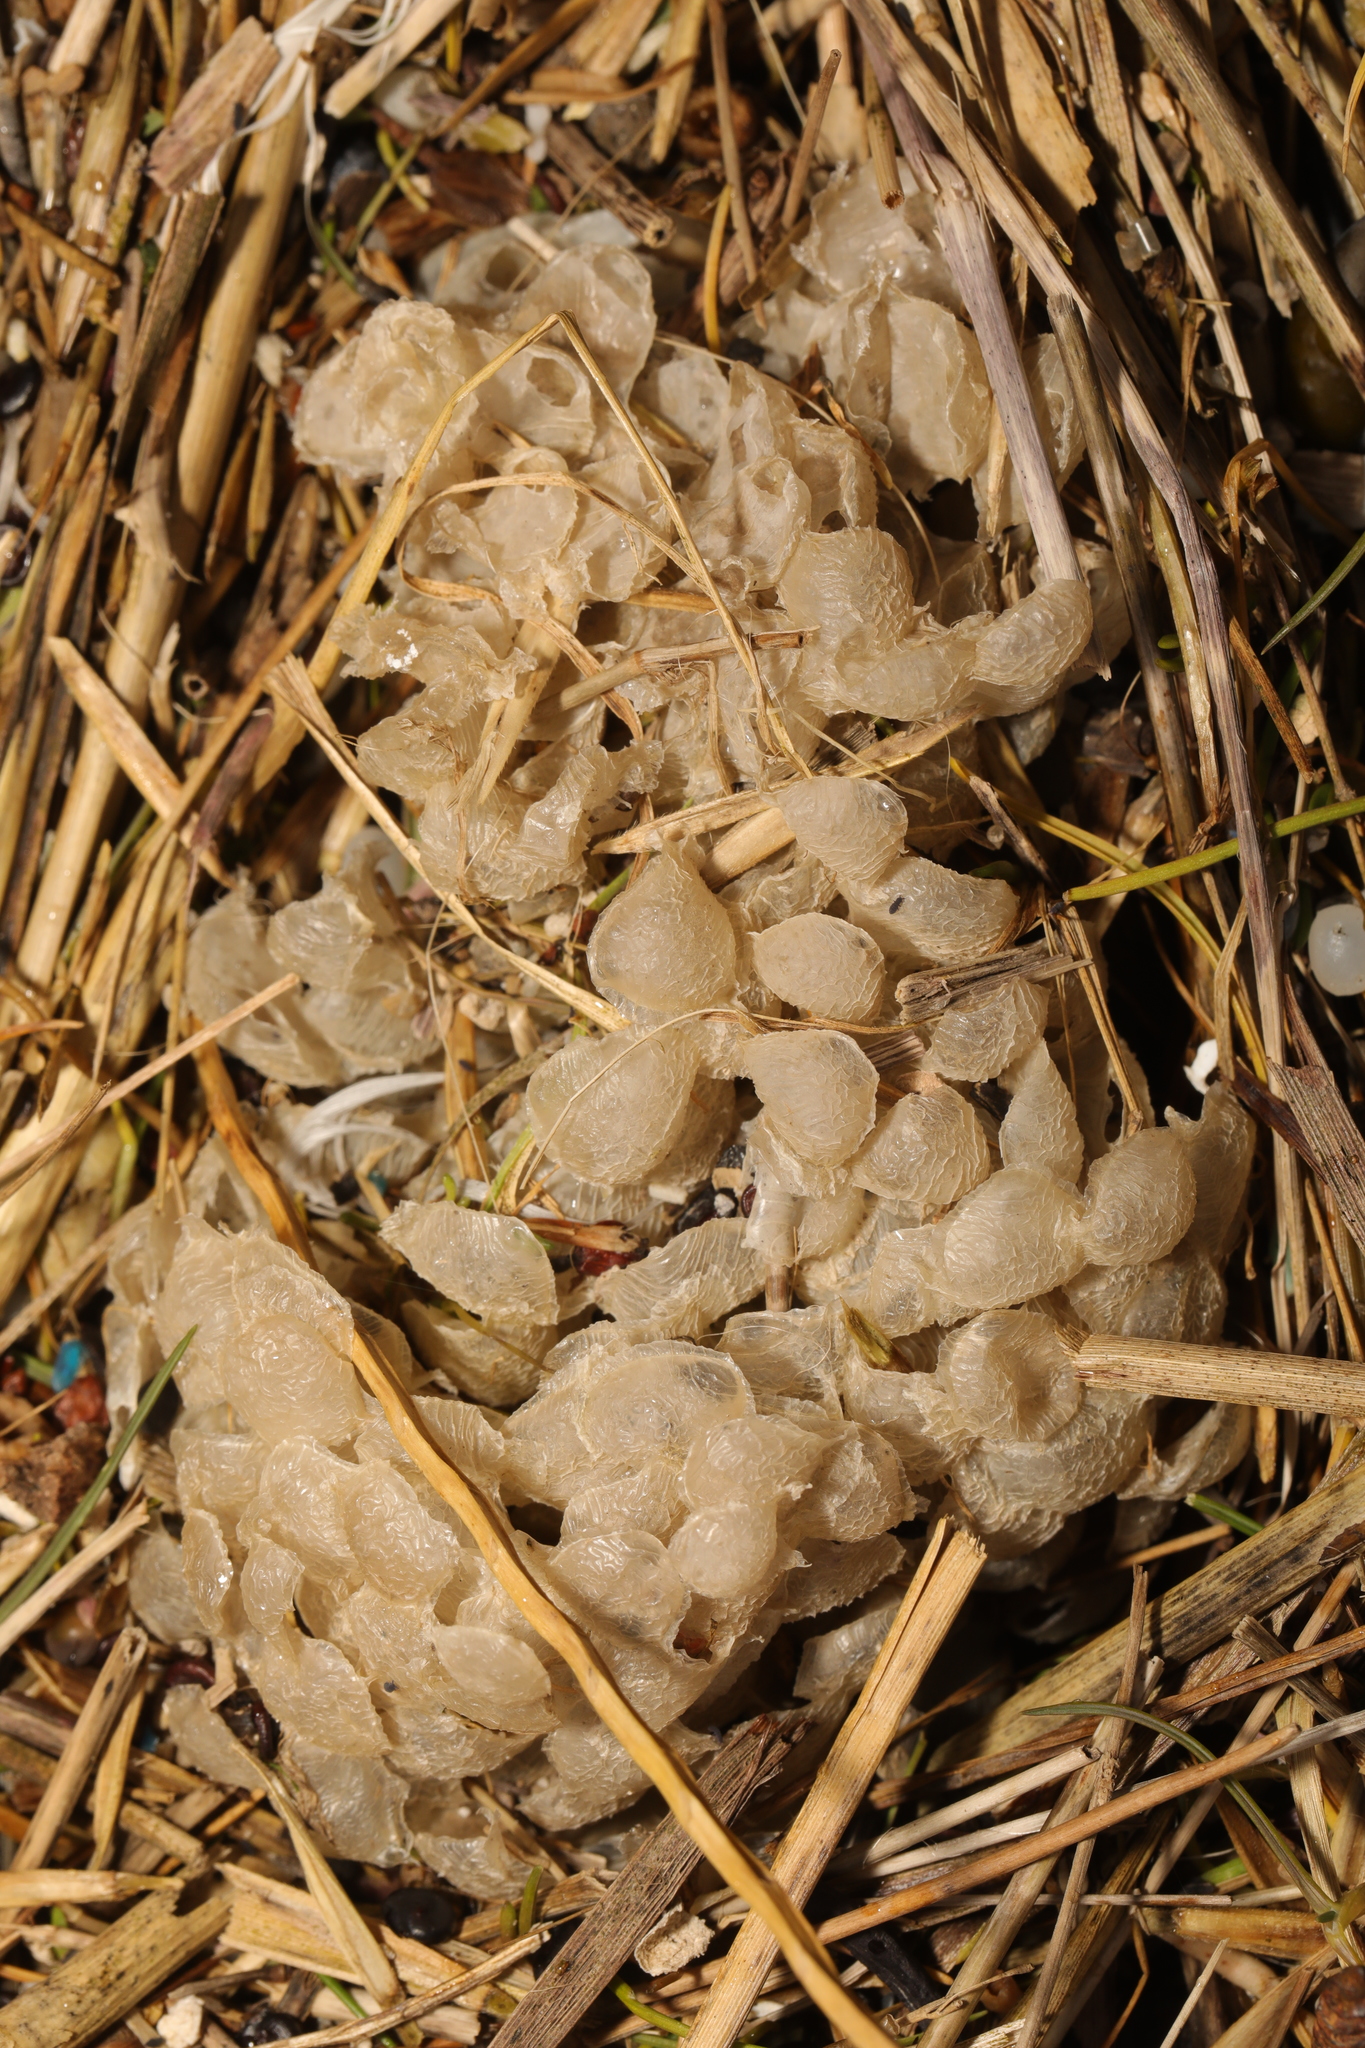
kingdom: Animalia
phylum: Mollusca
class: Gastropoda
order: Neogastropoda
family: Buccinidae
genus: Buccinum
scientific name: Buccinum undatum
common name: Common whelk
